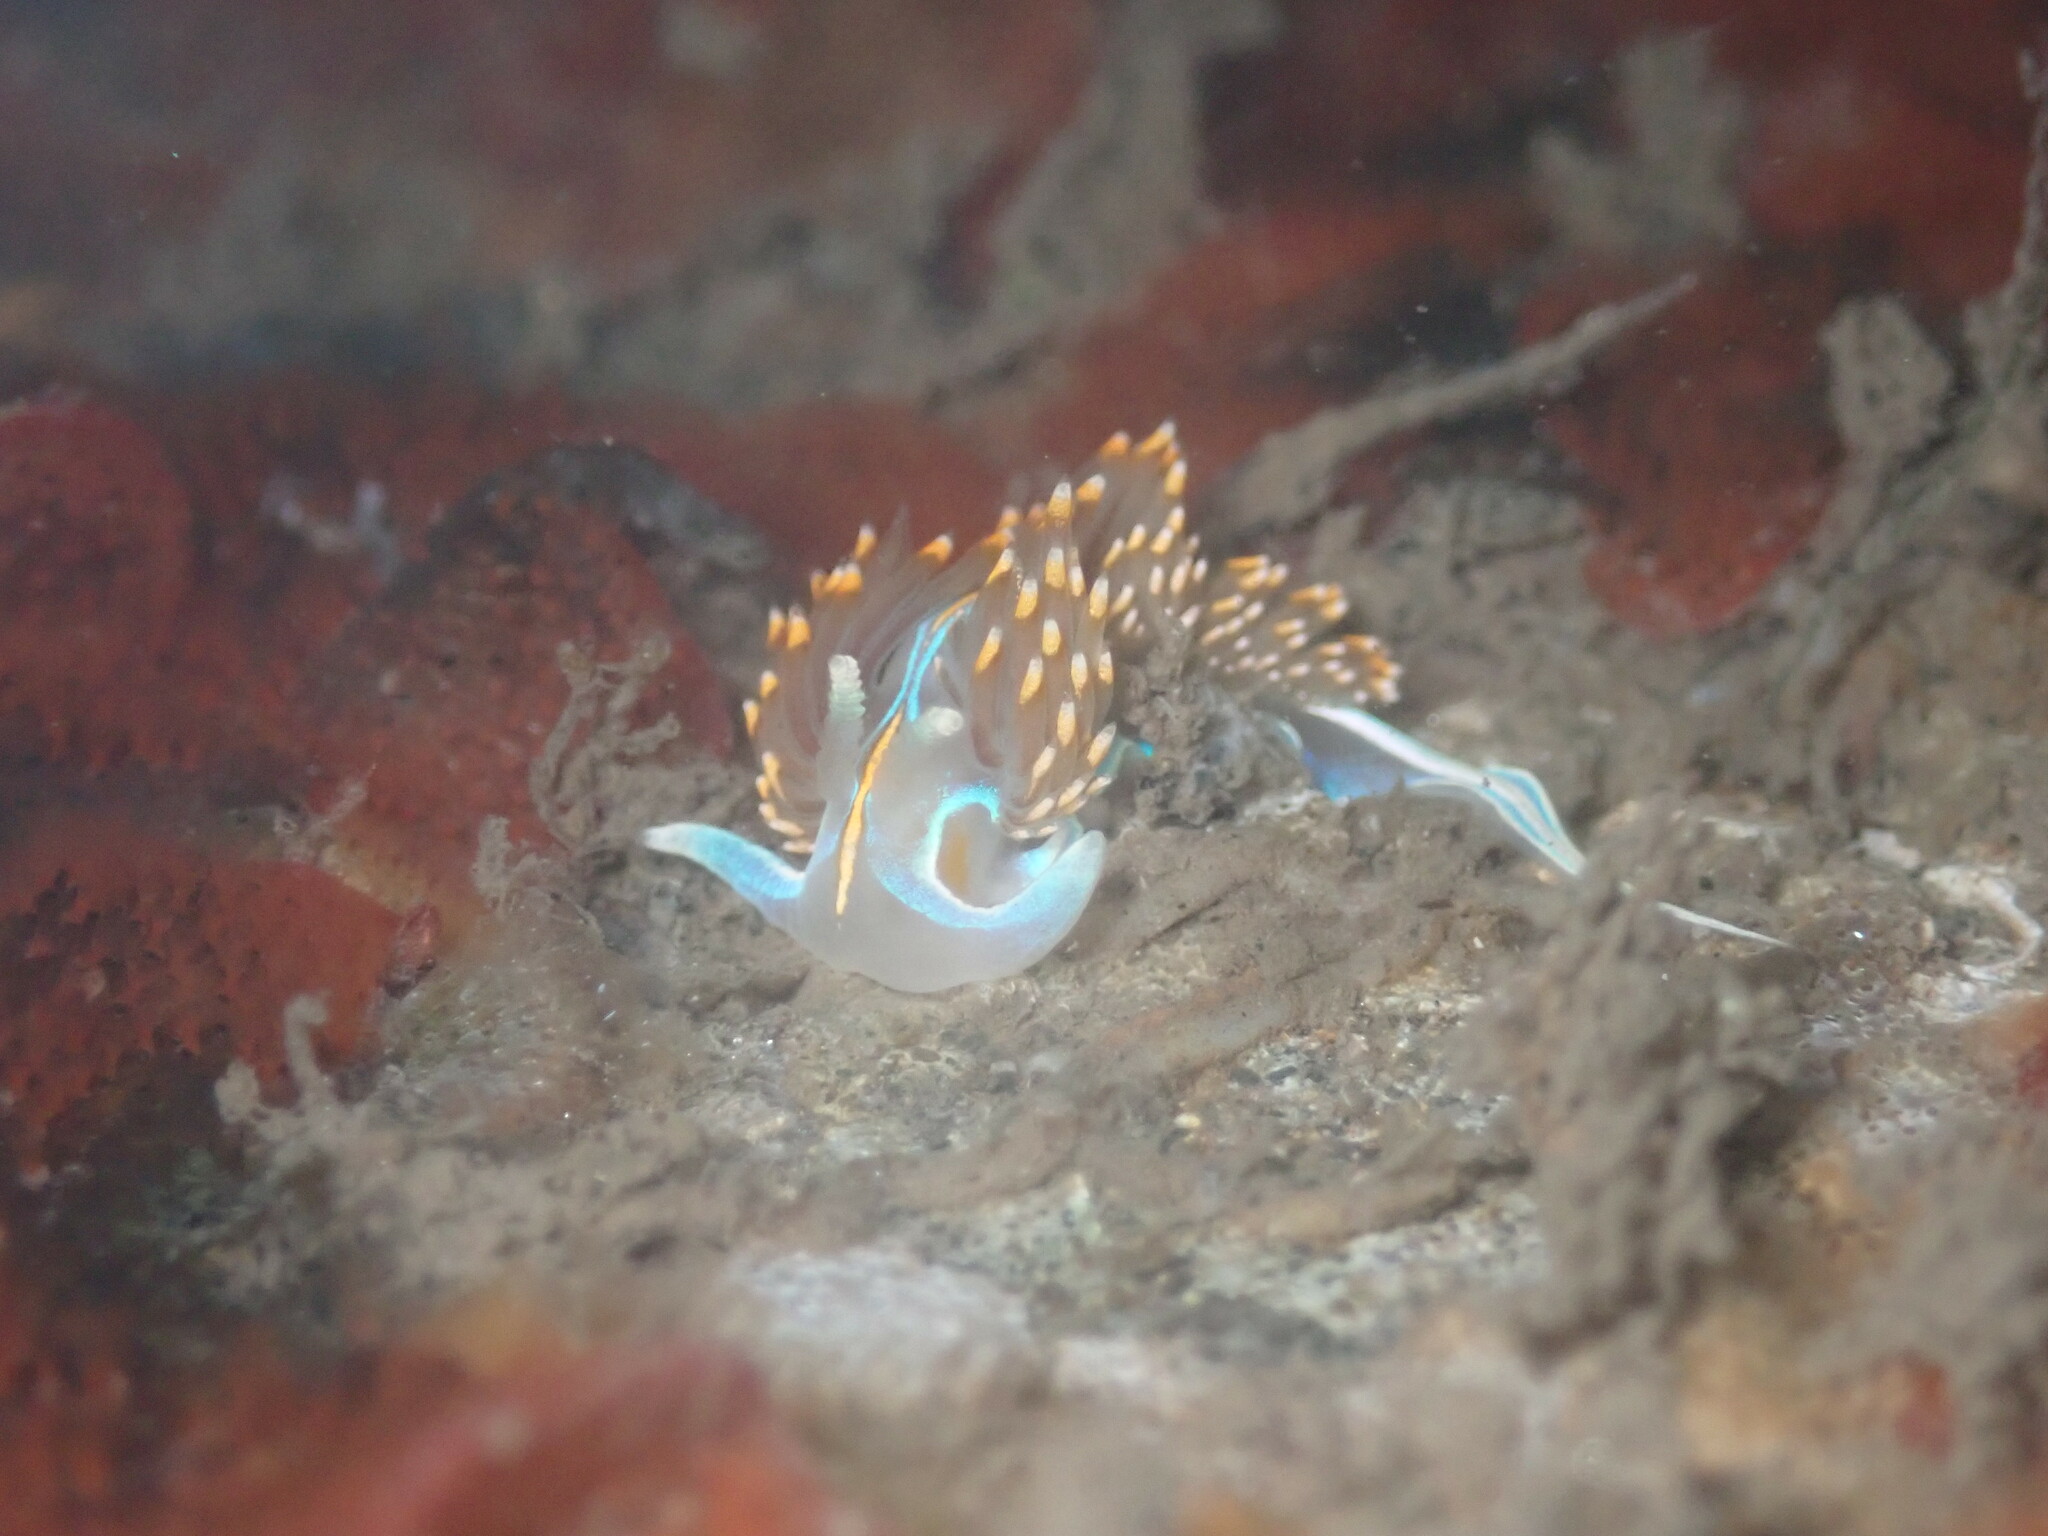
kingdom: Animalia
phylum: Mollusca
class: Gastropoda
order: Nudibranchia
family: Myrrhinidae
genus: Hermissenda
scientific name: Hermissenda opalescens
